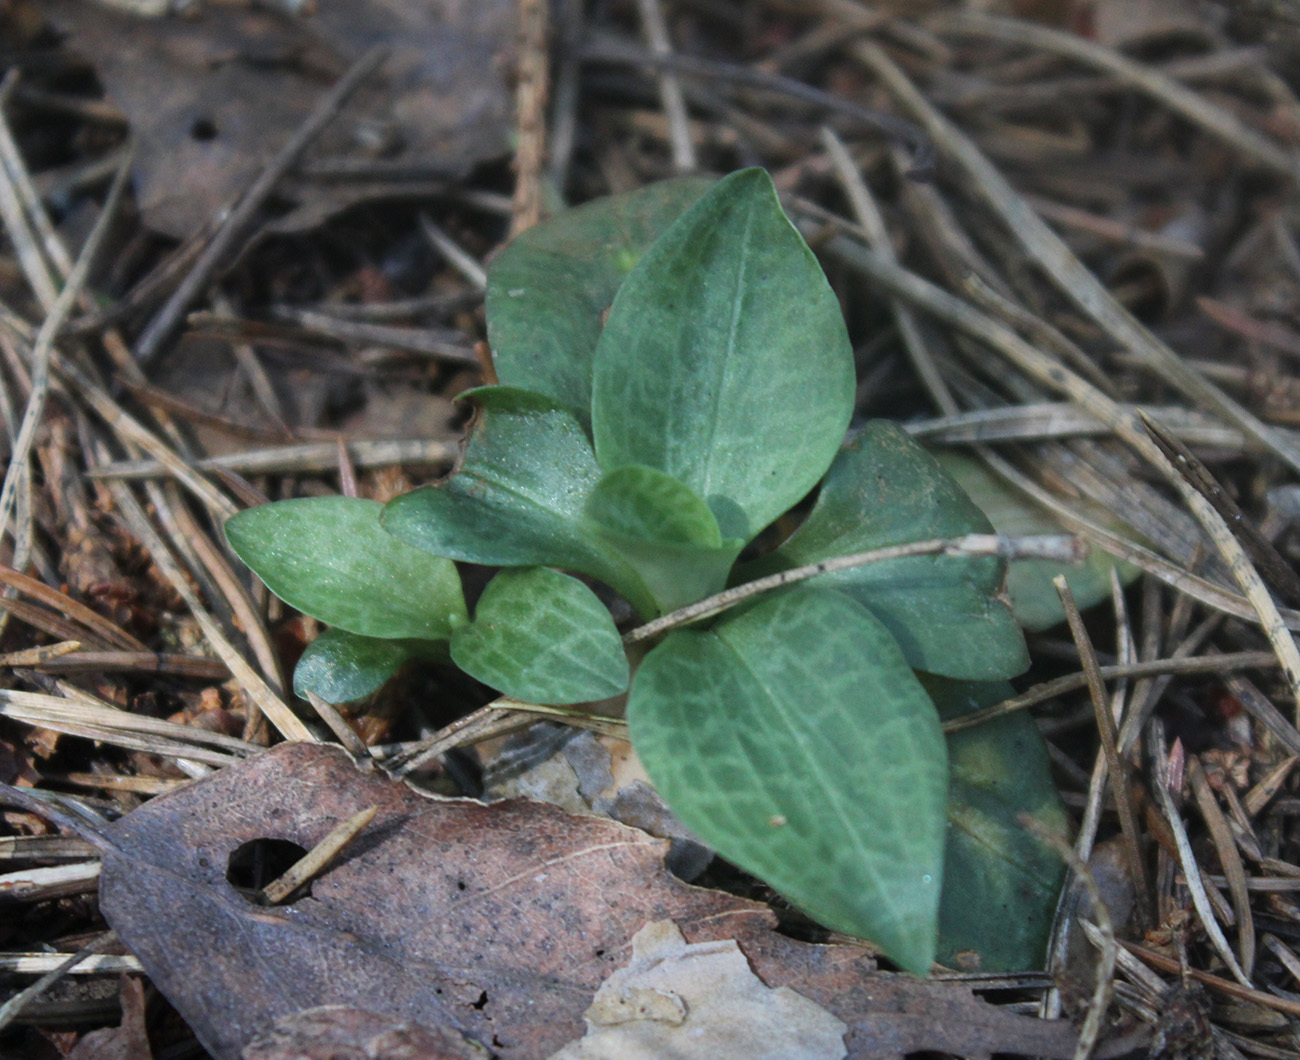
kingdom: Plantae
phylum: Tracheophyta
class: Liliopsida
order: Asparagales
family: Orchidaceae
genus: Goodyera
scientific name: Goodyera repens
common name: Creeping lady's-tresses
